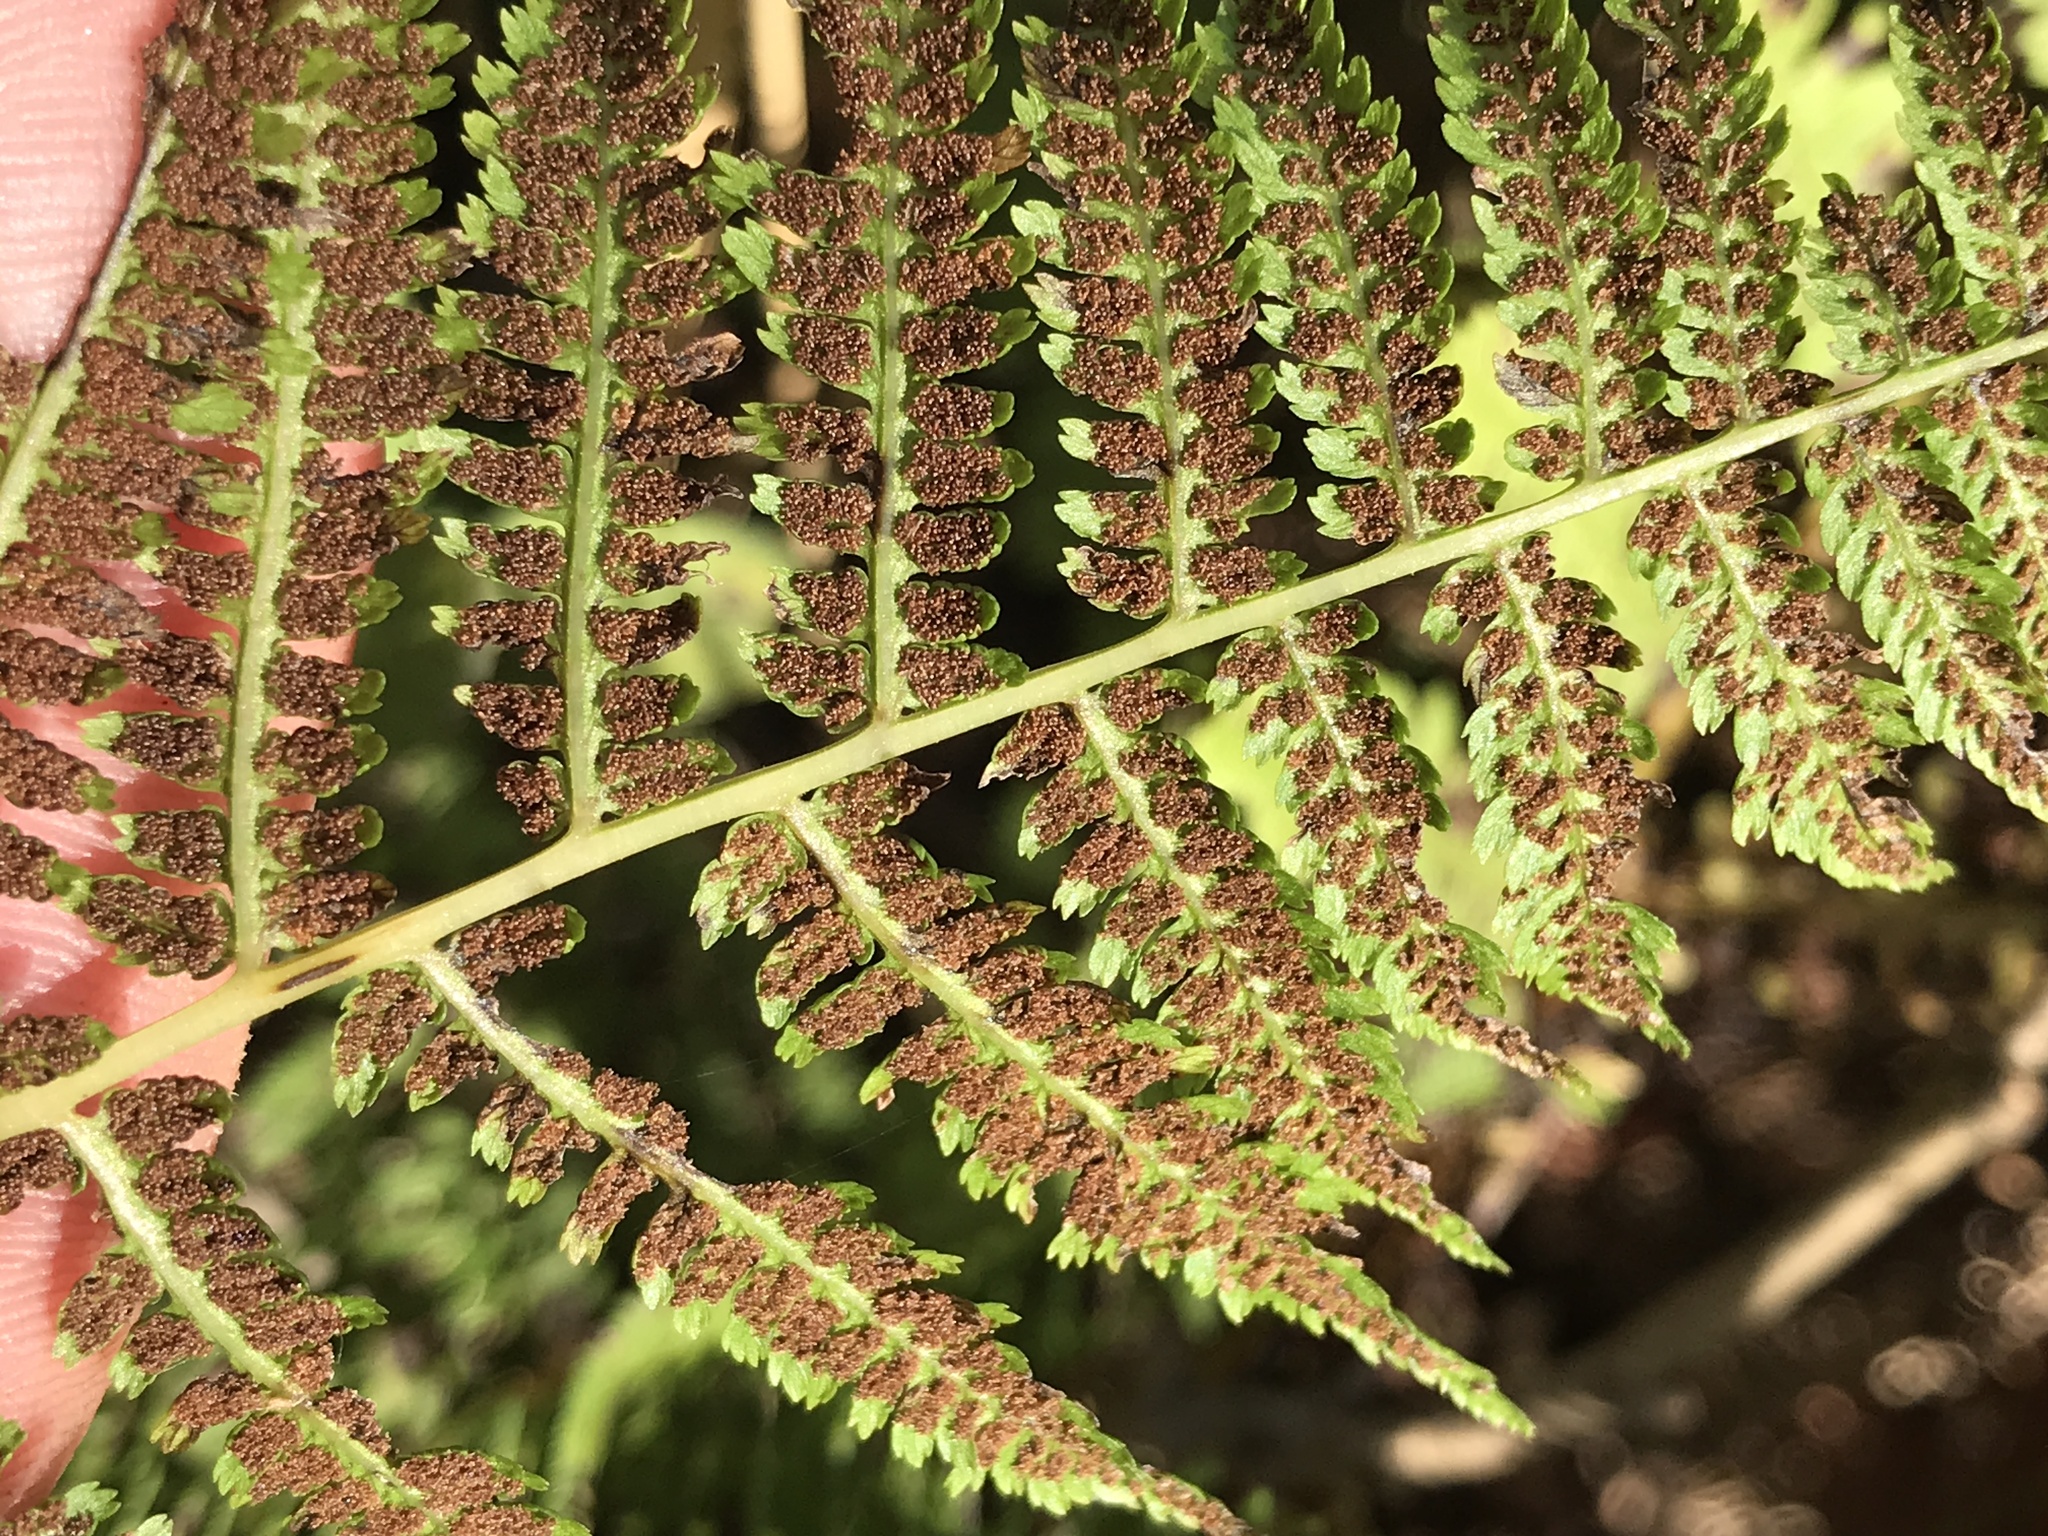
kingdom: Plantae
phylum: Tracheophyta
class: Polypodiopsida
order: Polypodiales
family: Athyriaceae
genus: Athyrium
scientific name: Athyrium angustum
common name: Northern lady fern
